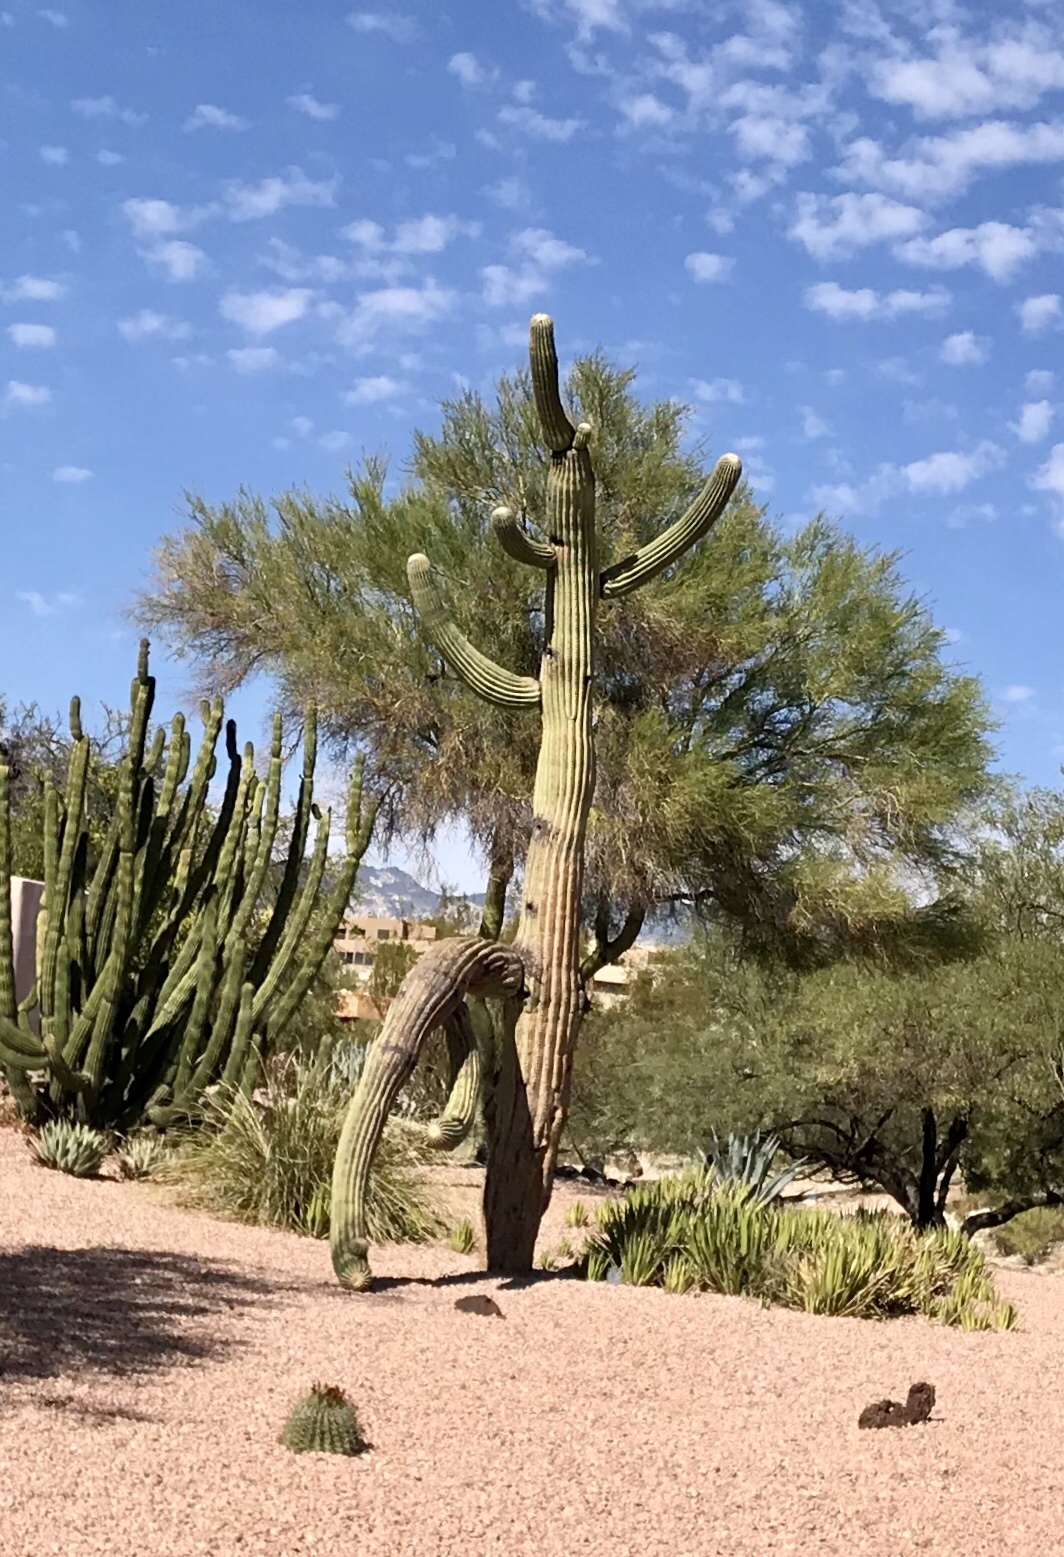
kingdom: Plantae
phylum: Tracheophyta
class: Magnoliopsida
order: Caryophyllales
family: Cactaceae
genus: Carnegiea
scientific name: Carnegiea gigantea
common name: Saguaro
